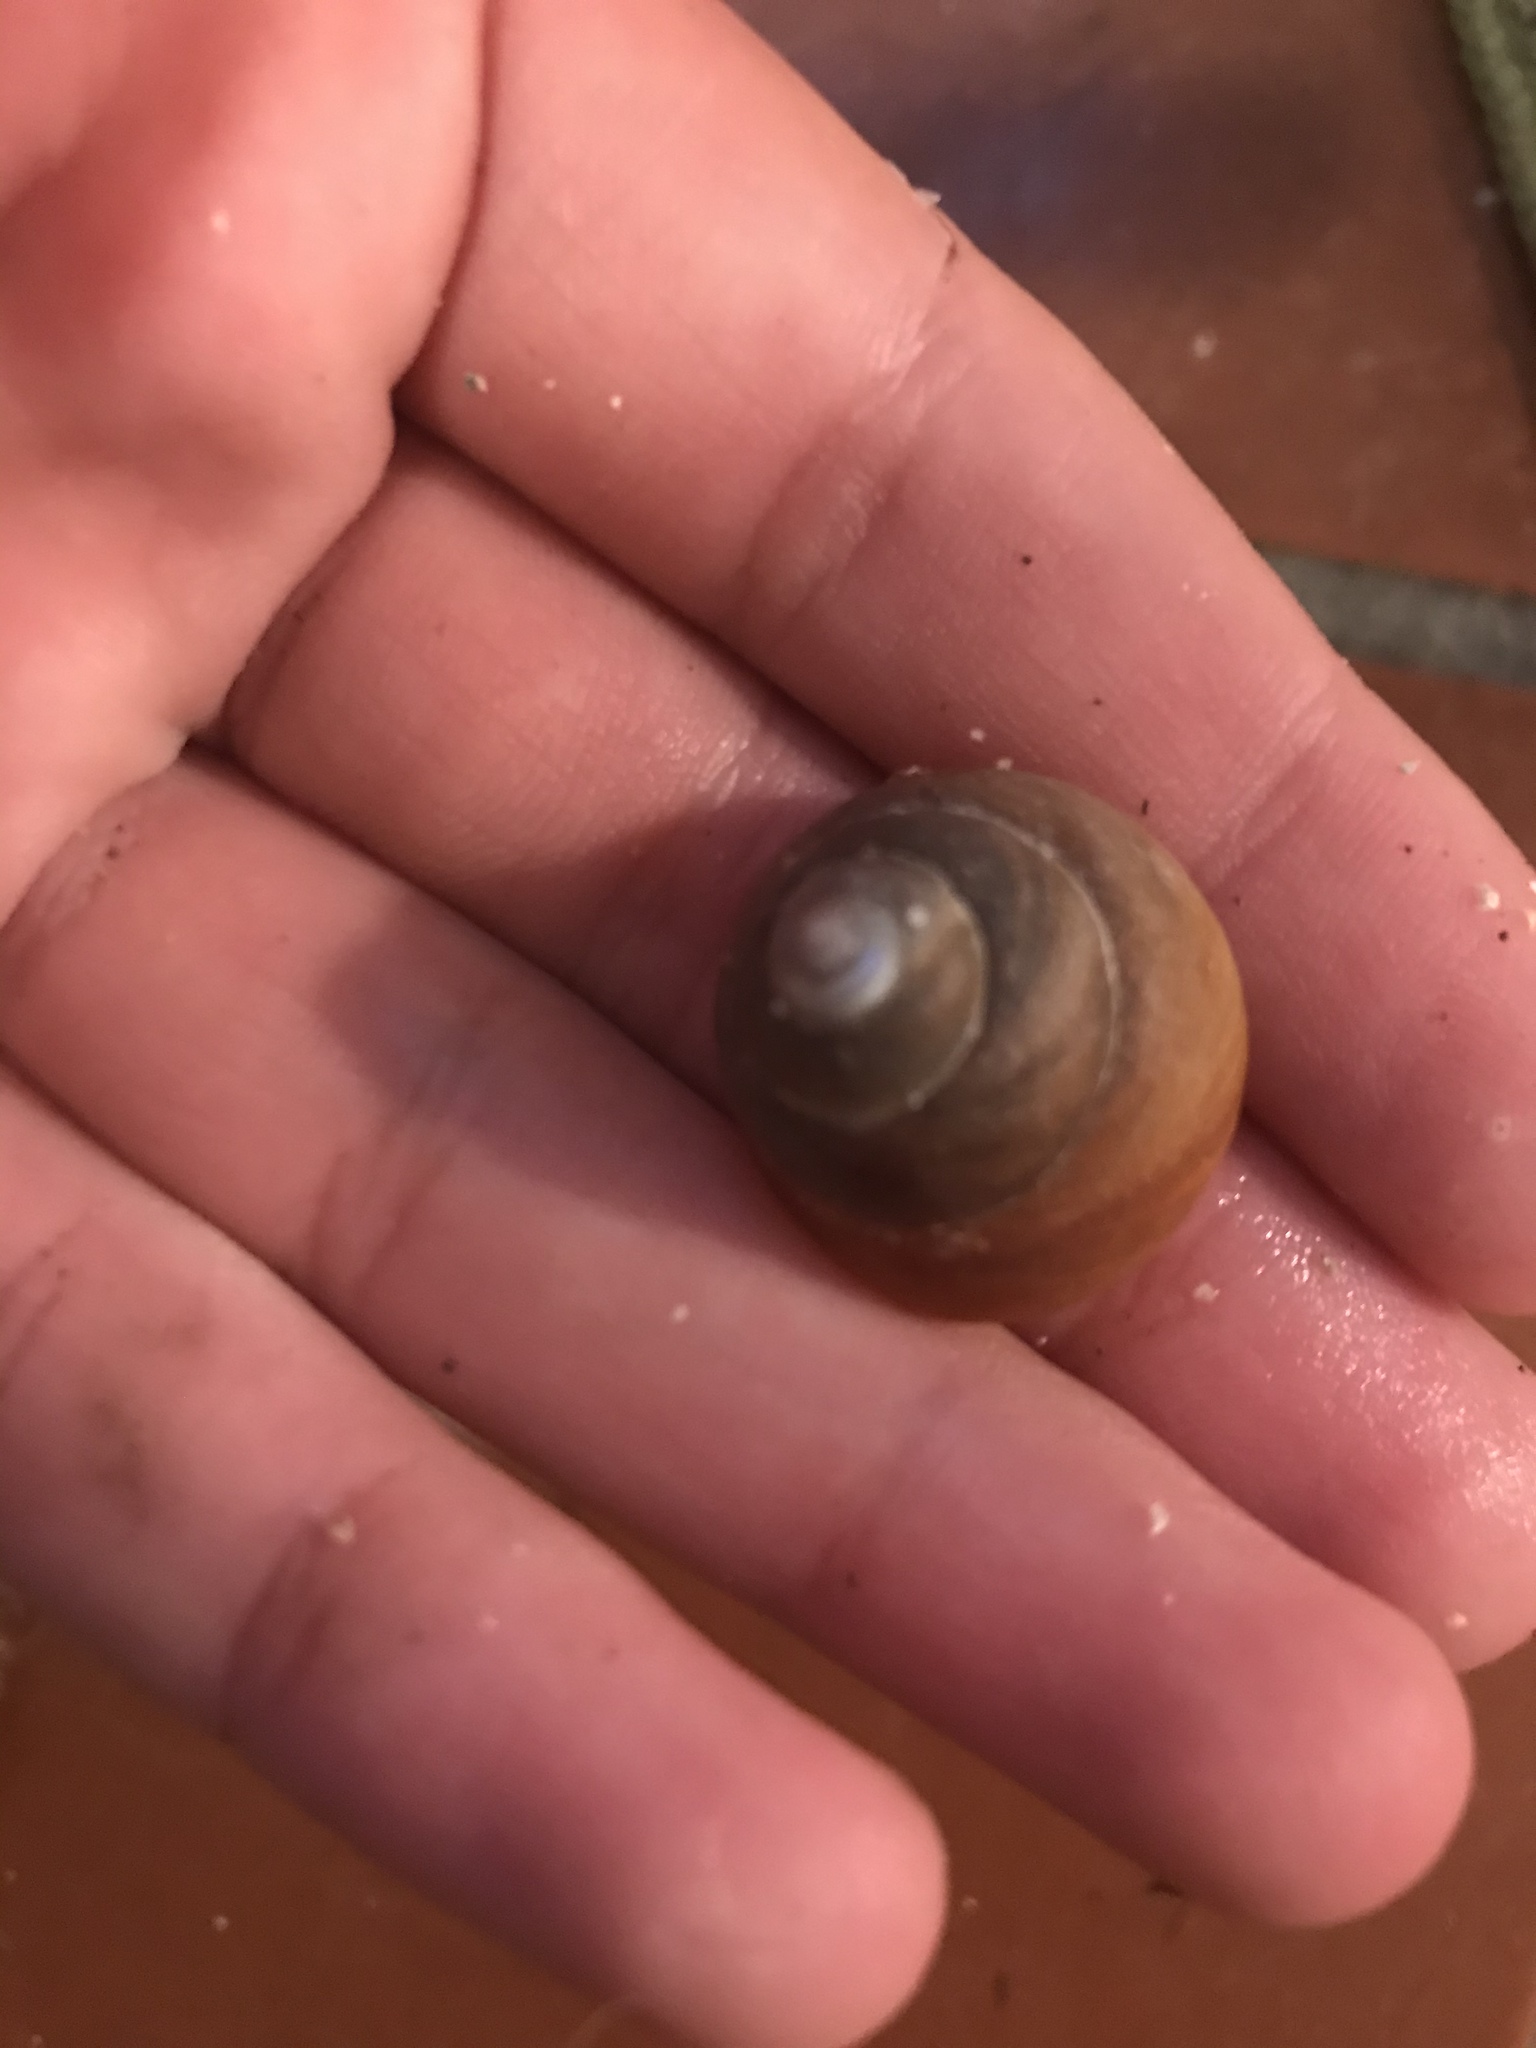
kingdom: Animalia
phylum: Mollusca
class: Gastropoda
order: Trochida
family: Tegulidae
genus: Tegula
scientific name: Tegula brunnea
